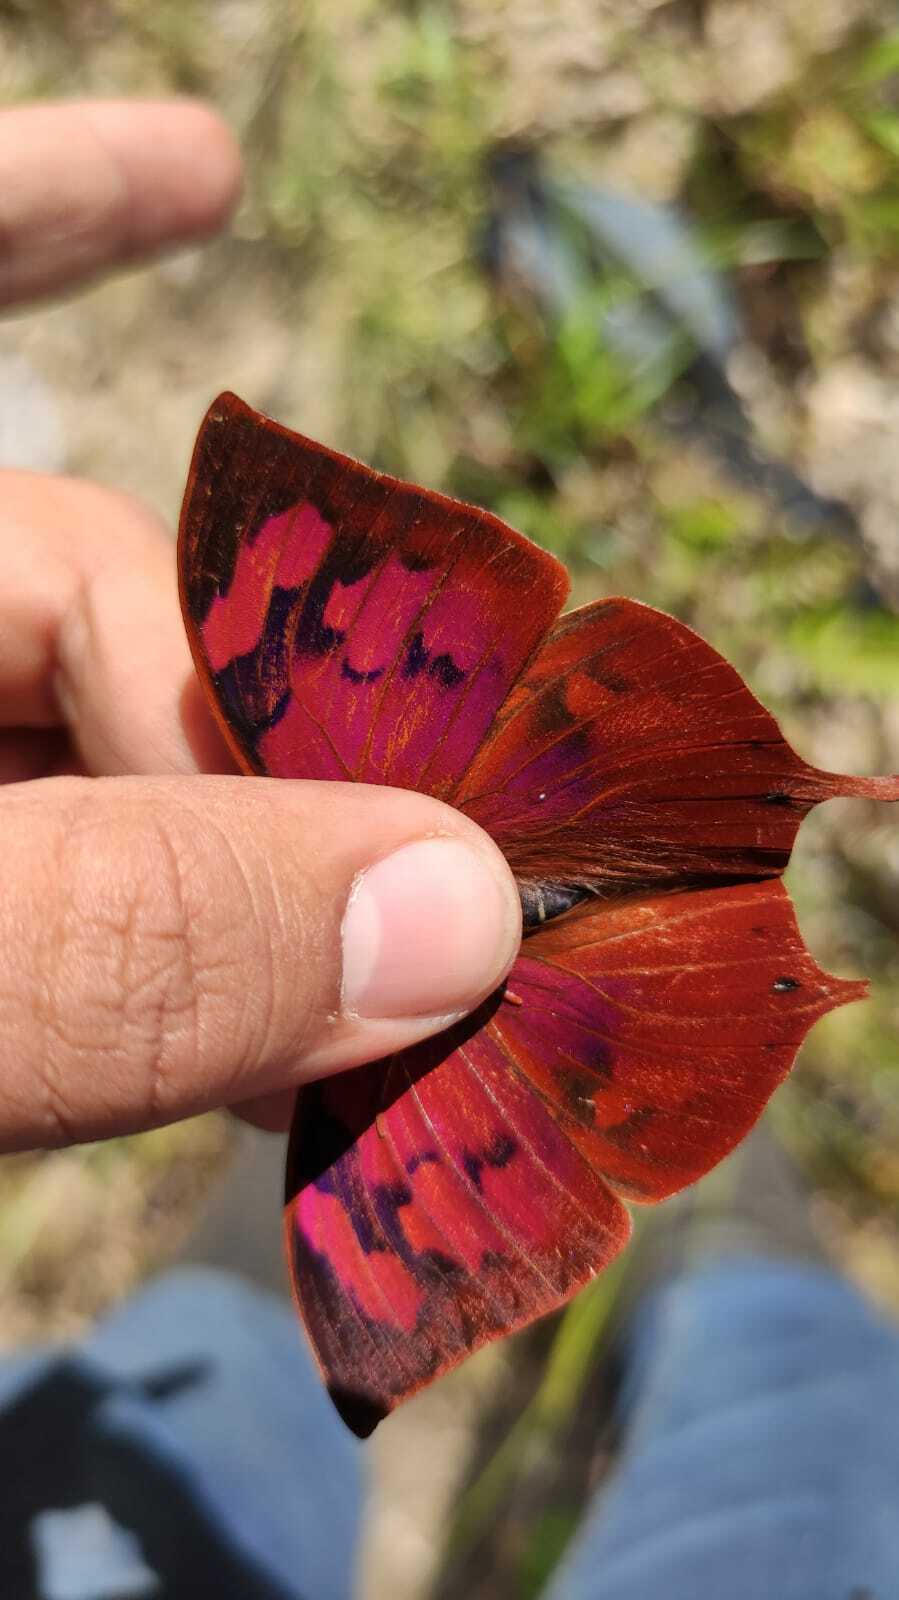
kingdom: Animalia
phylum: Arthropoda
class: Insecta
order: Lepidoptera
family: Nymphalidae
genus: Fountainea
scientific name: Fountainea
